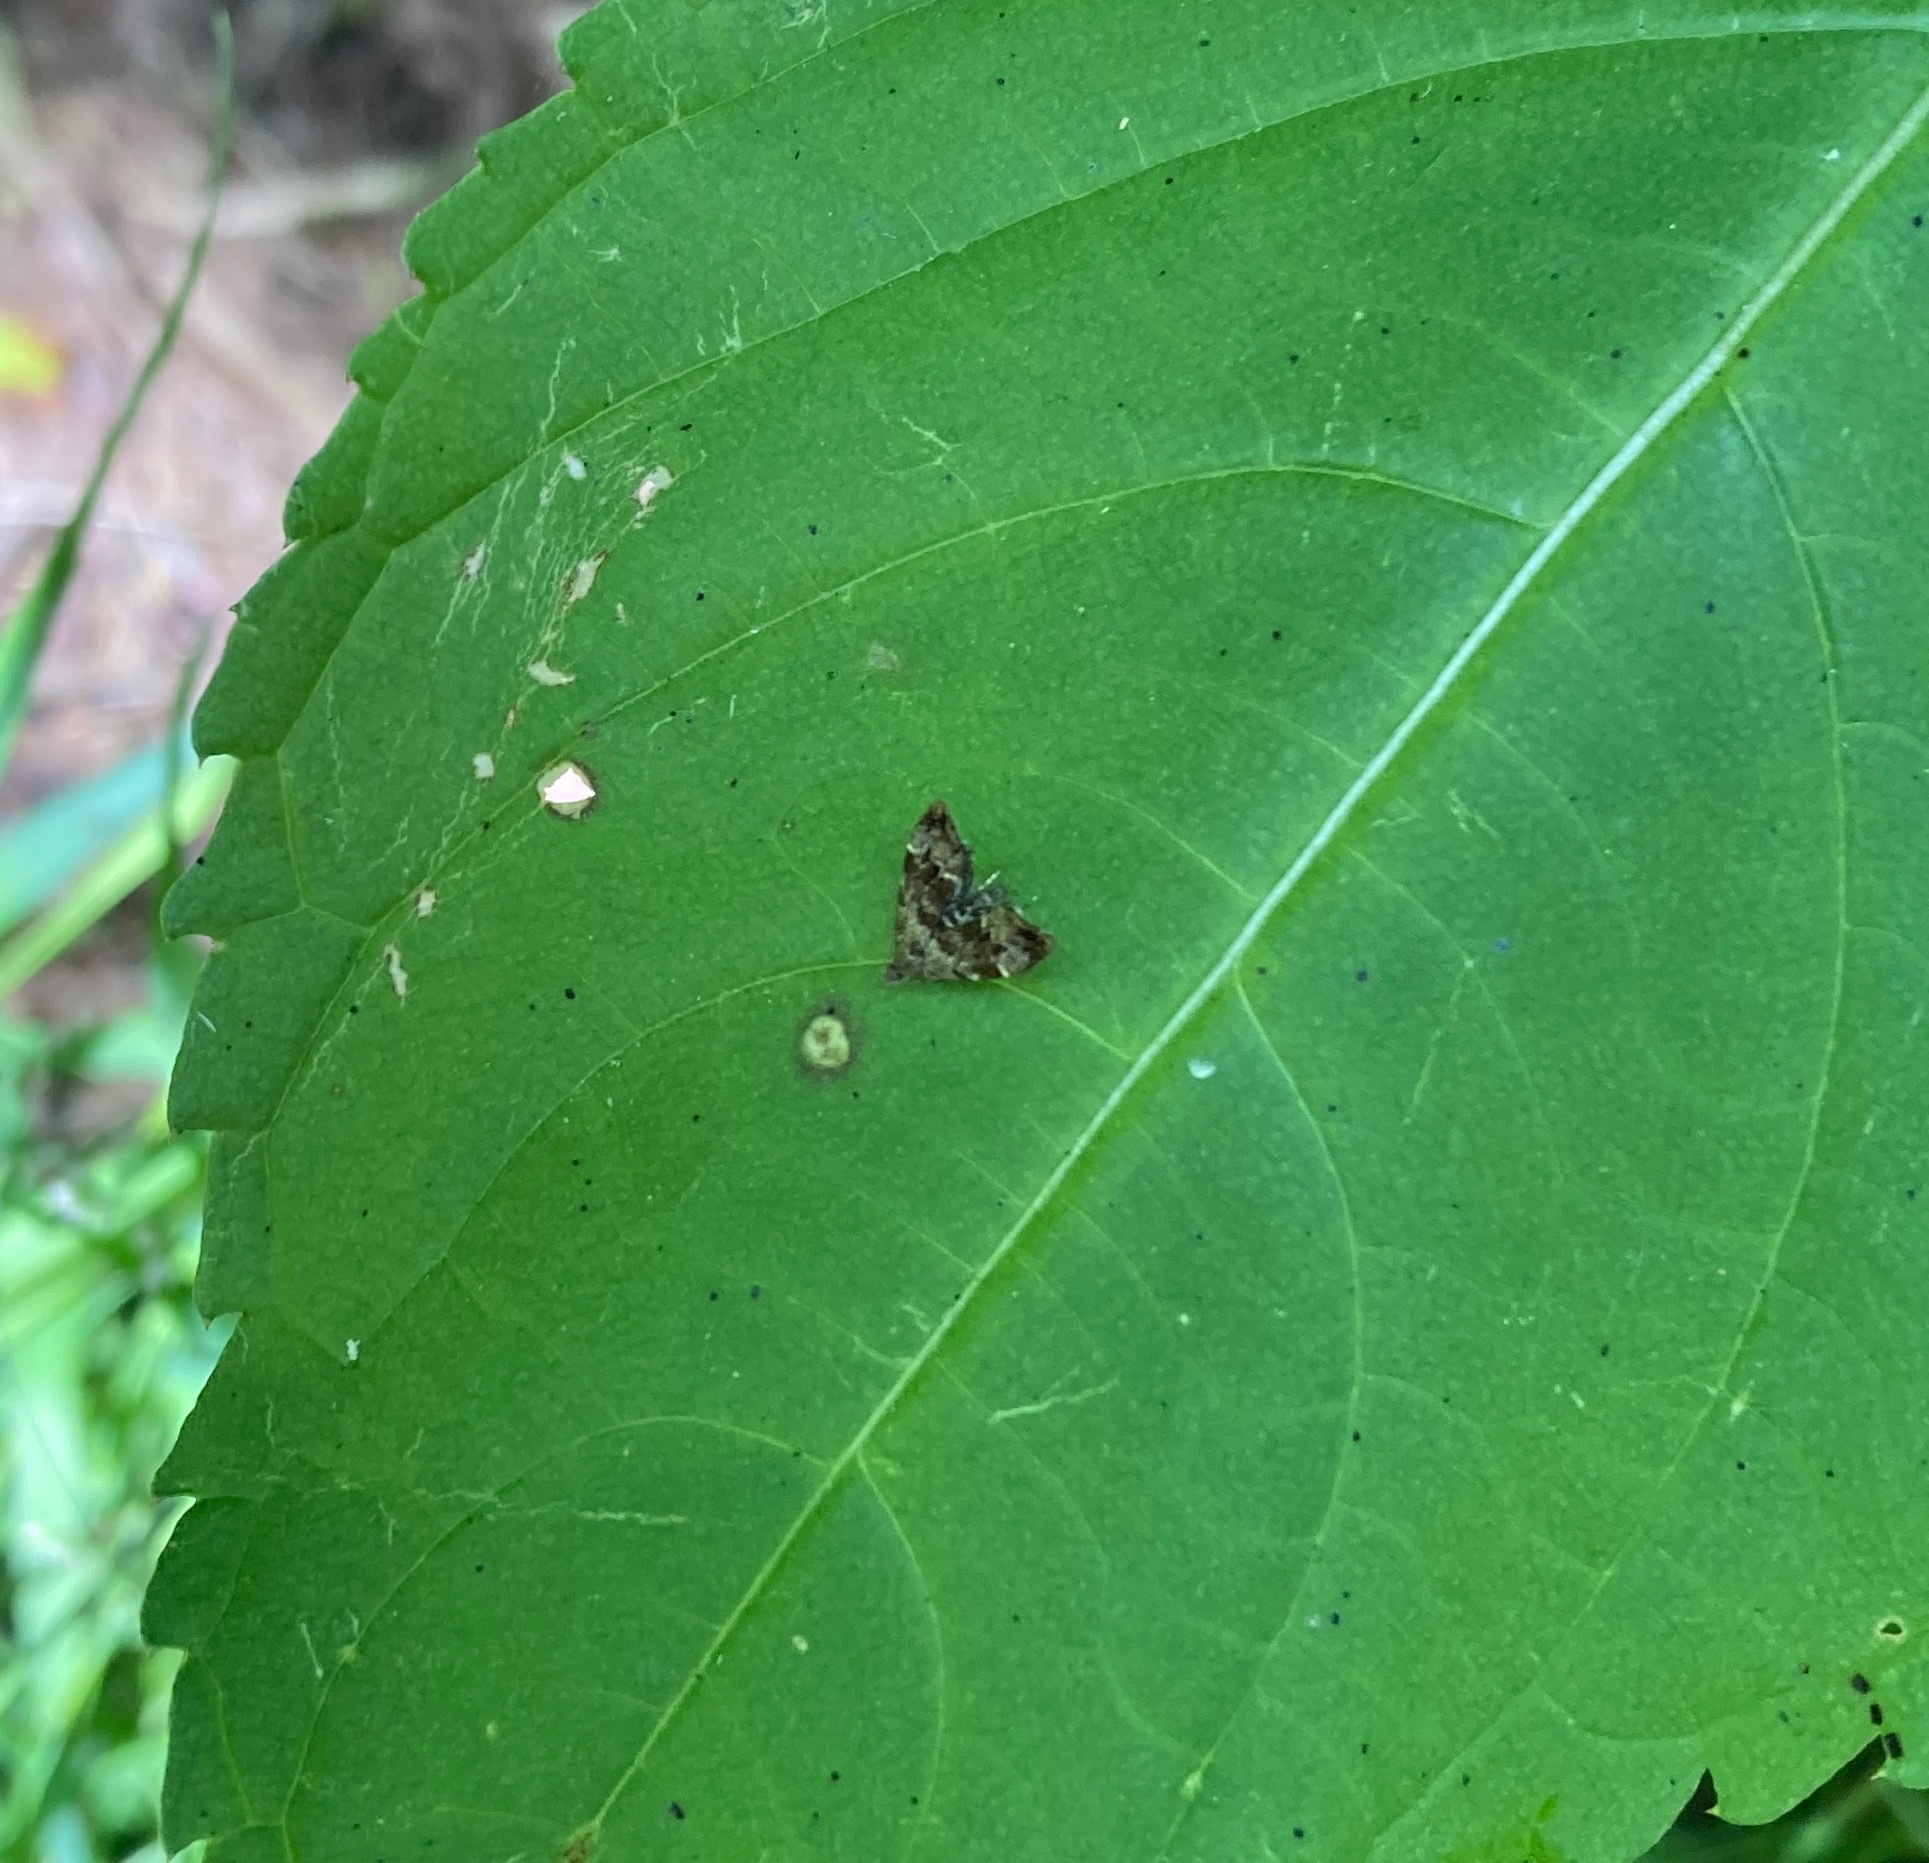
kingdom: Animalia
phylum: Arthropoda
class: Insecta
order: Lepidoptera
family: Choreutidae
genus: Anthophila
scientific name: Anthophila fabriciana
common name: Nettle-tap
